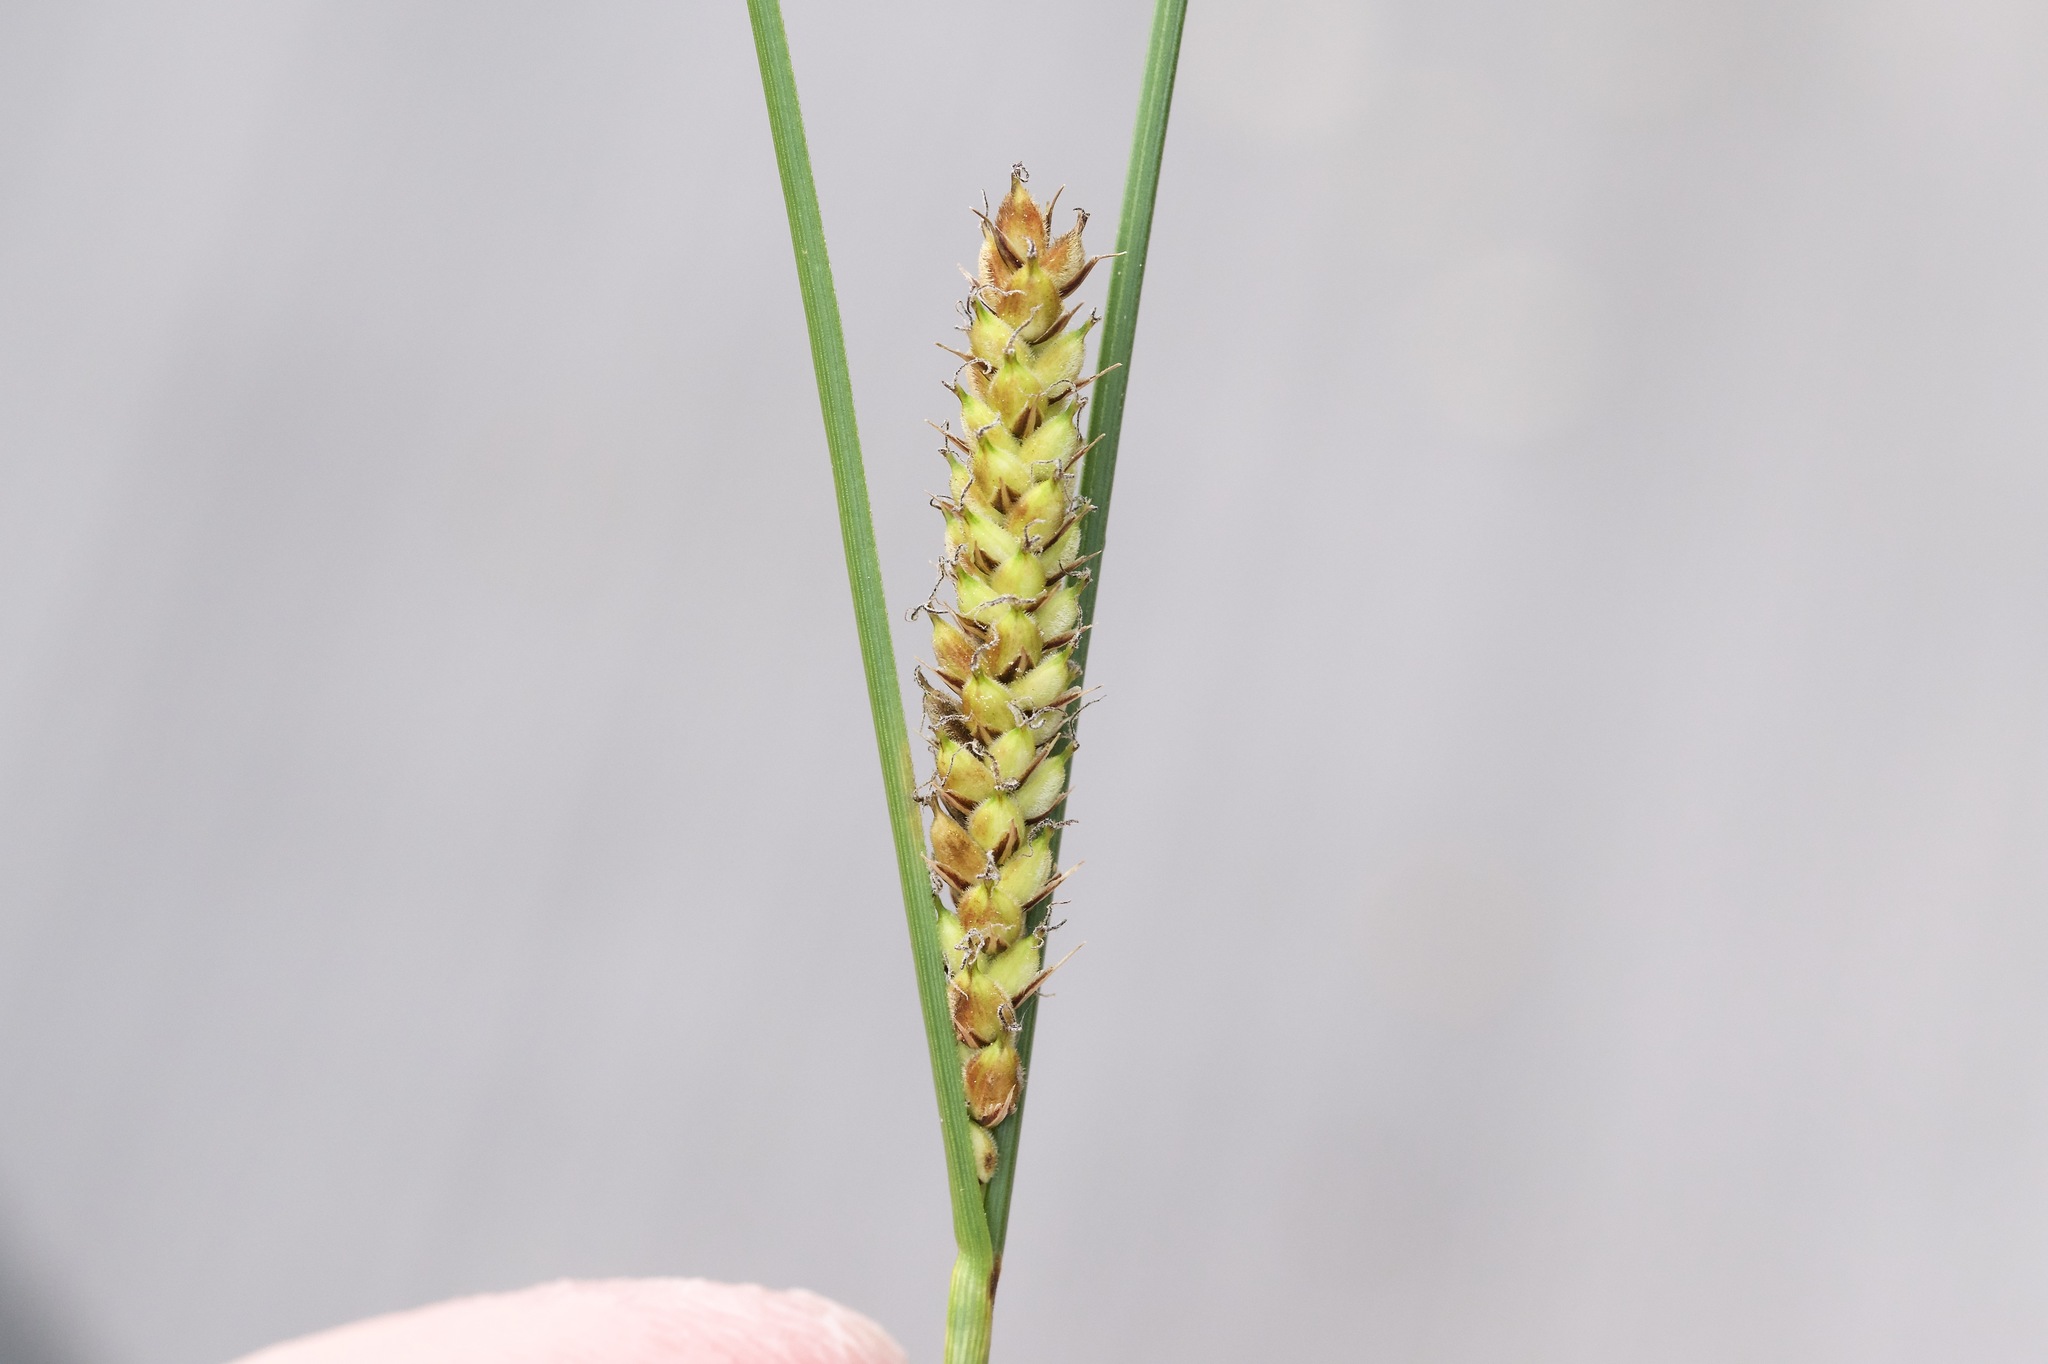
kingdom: Plantae
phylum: Tracheophyta
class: Liliopsida
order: Poales
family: Cyperaceae
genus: Carex
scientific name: Carex lasiocarpa
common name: Slender sedge
